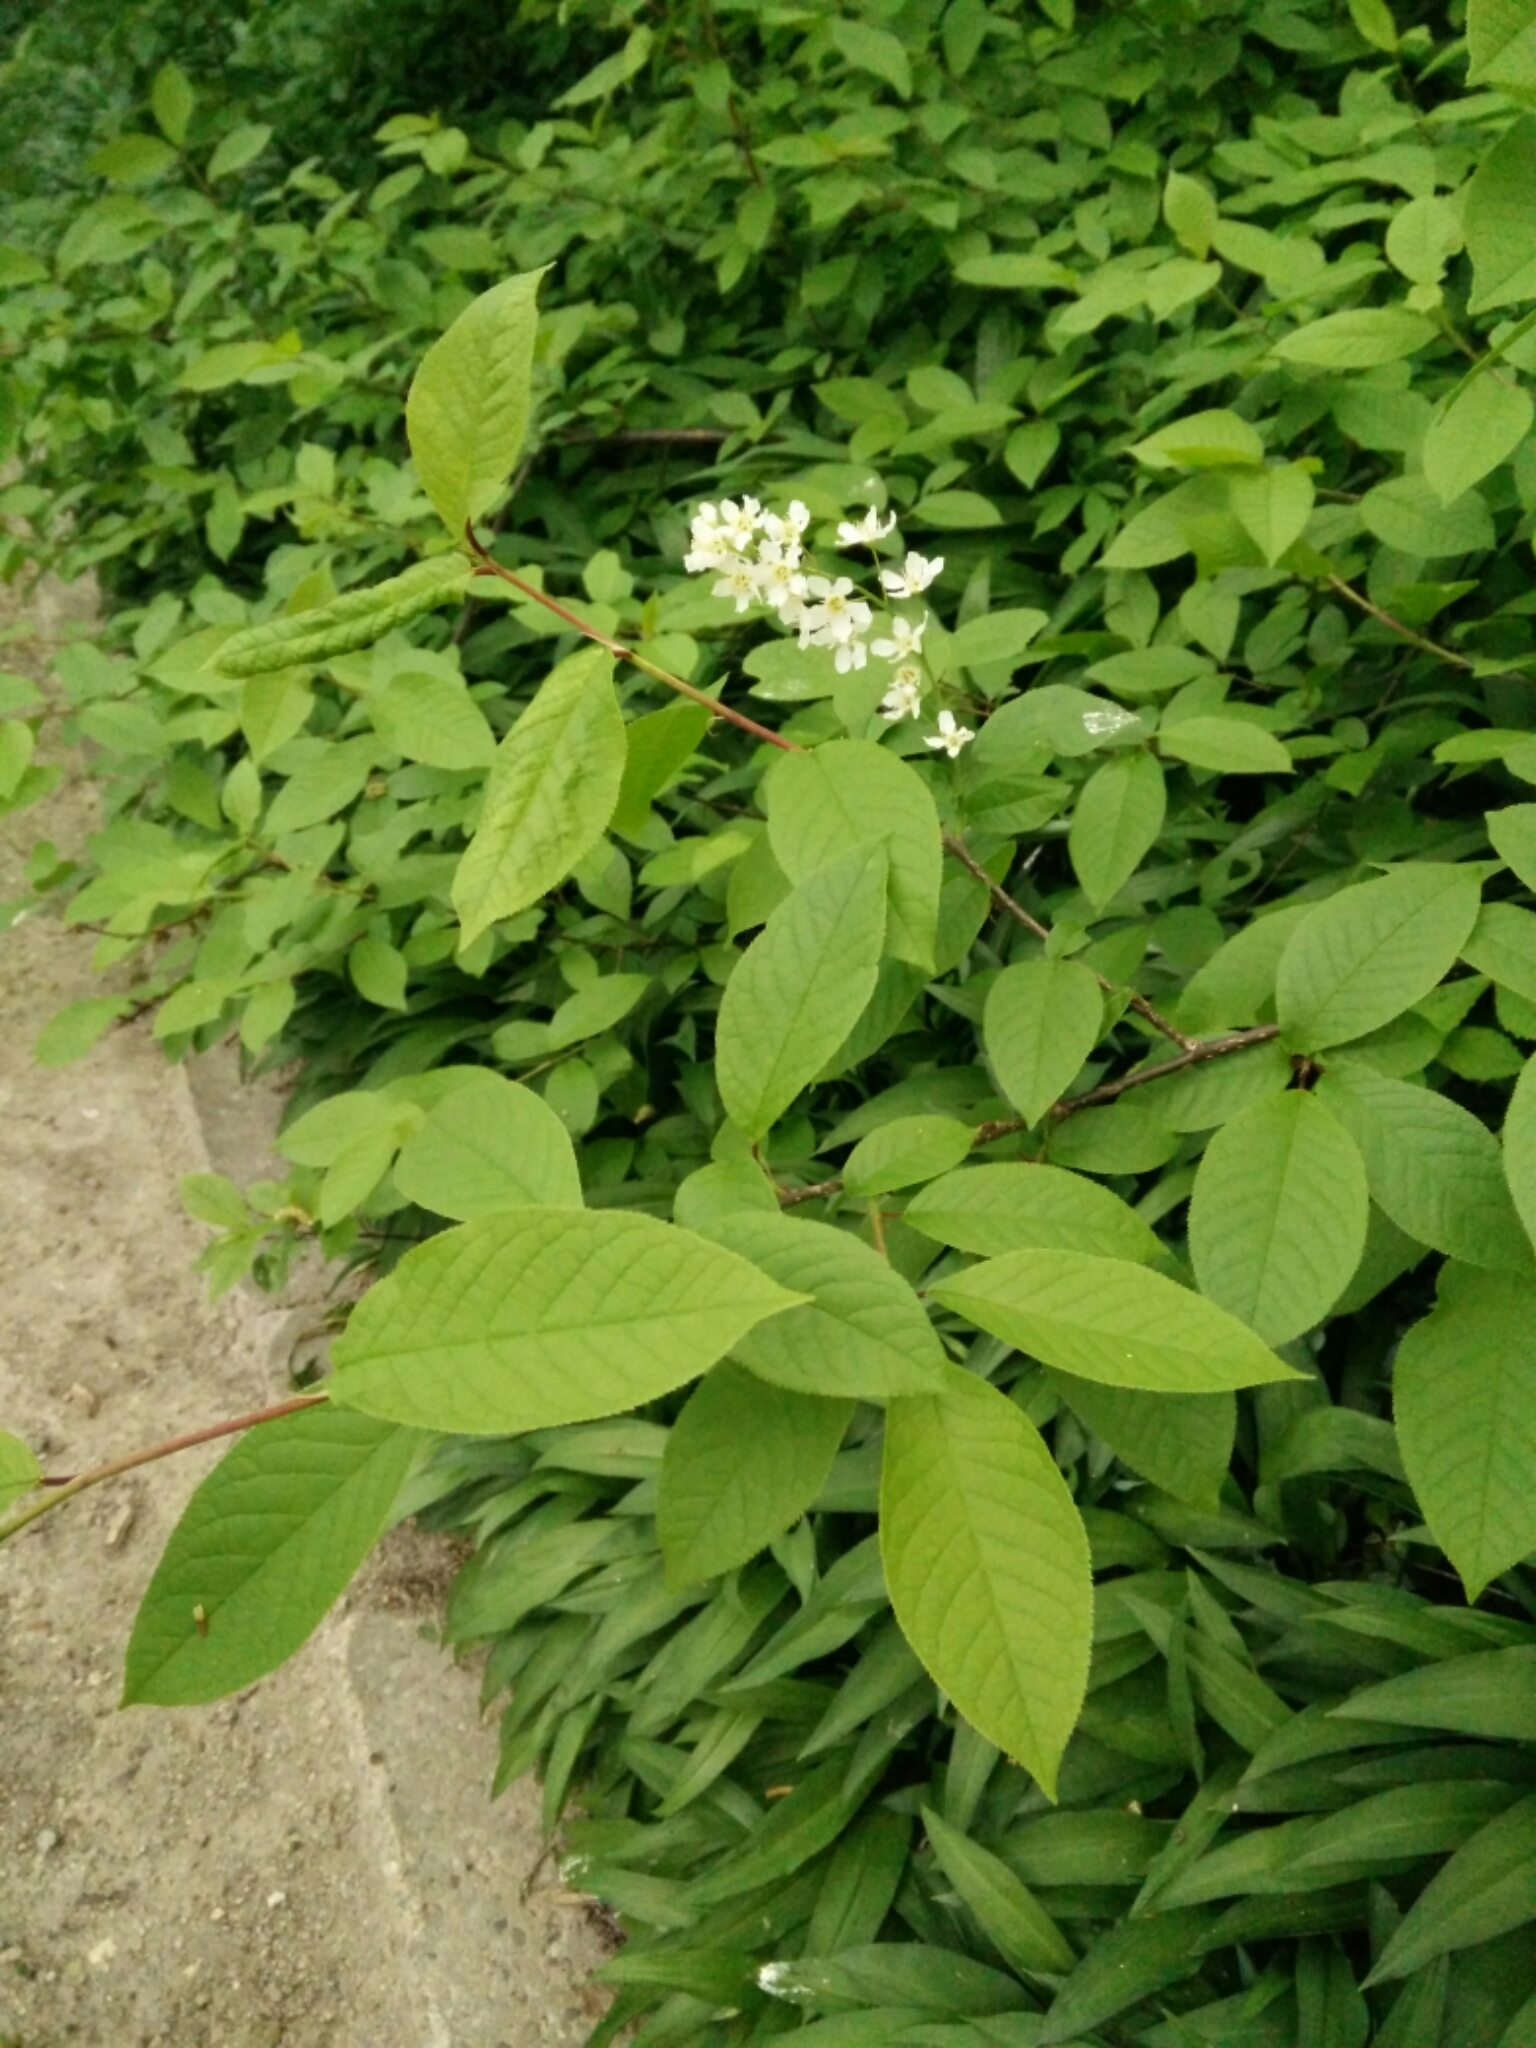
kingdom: Plantae
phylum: Tracheophyta
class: Magnoliopsida
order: Rosales
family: Rosaceae
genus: Prunus
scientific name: Prunus padus
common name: Bird cherry
